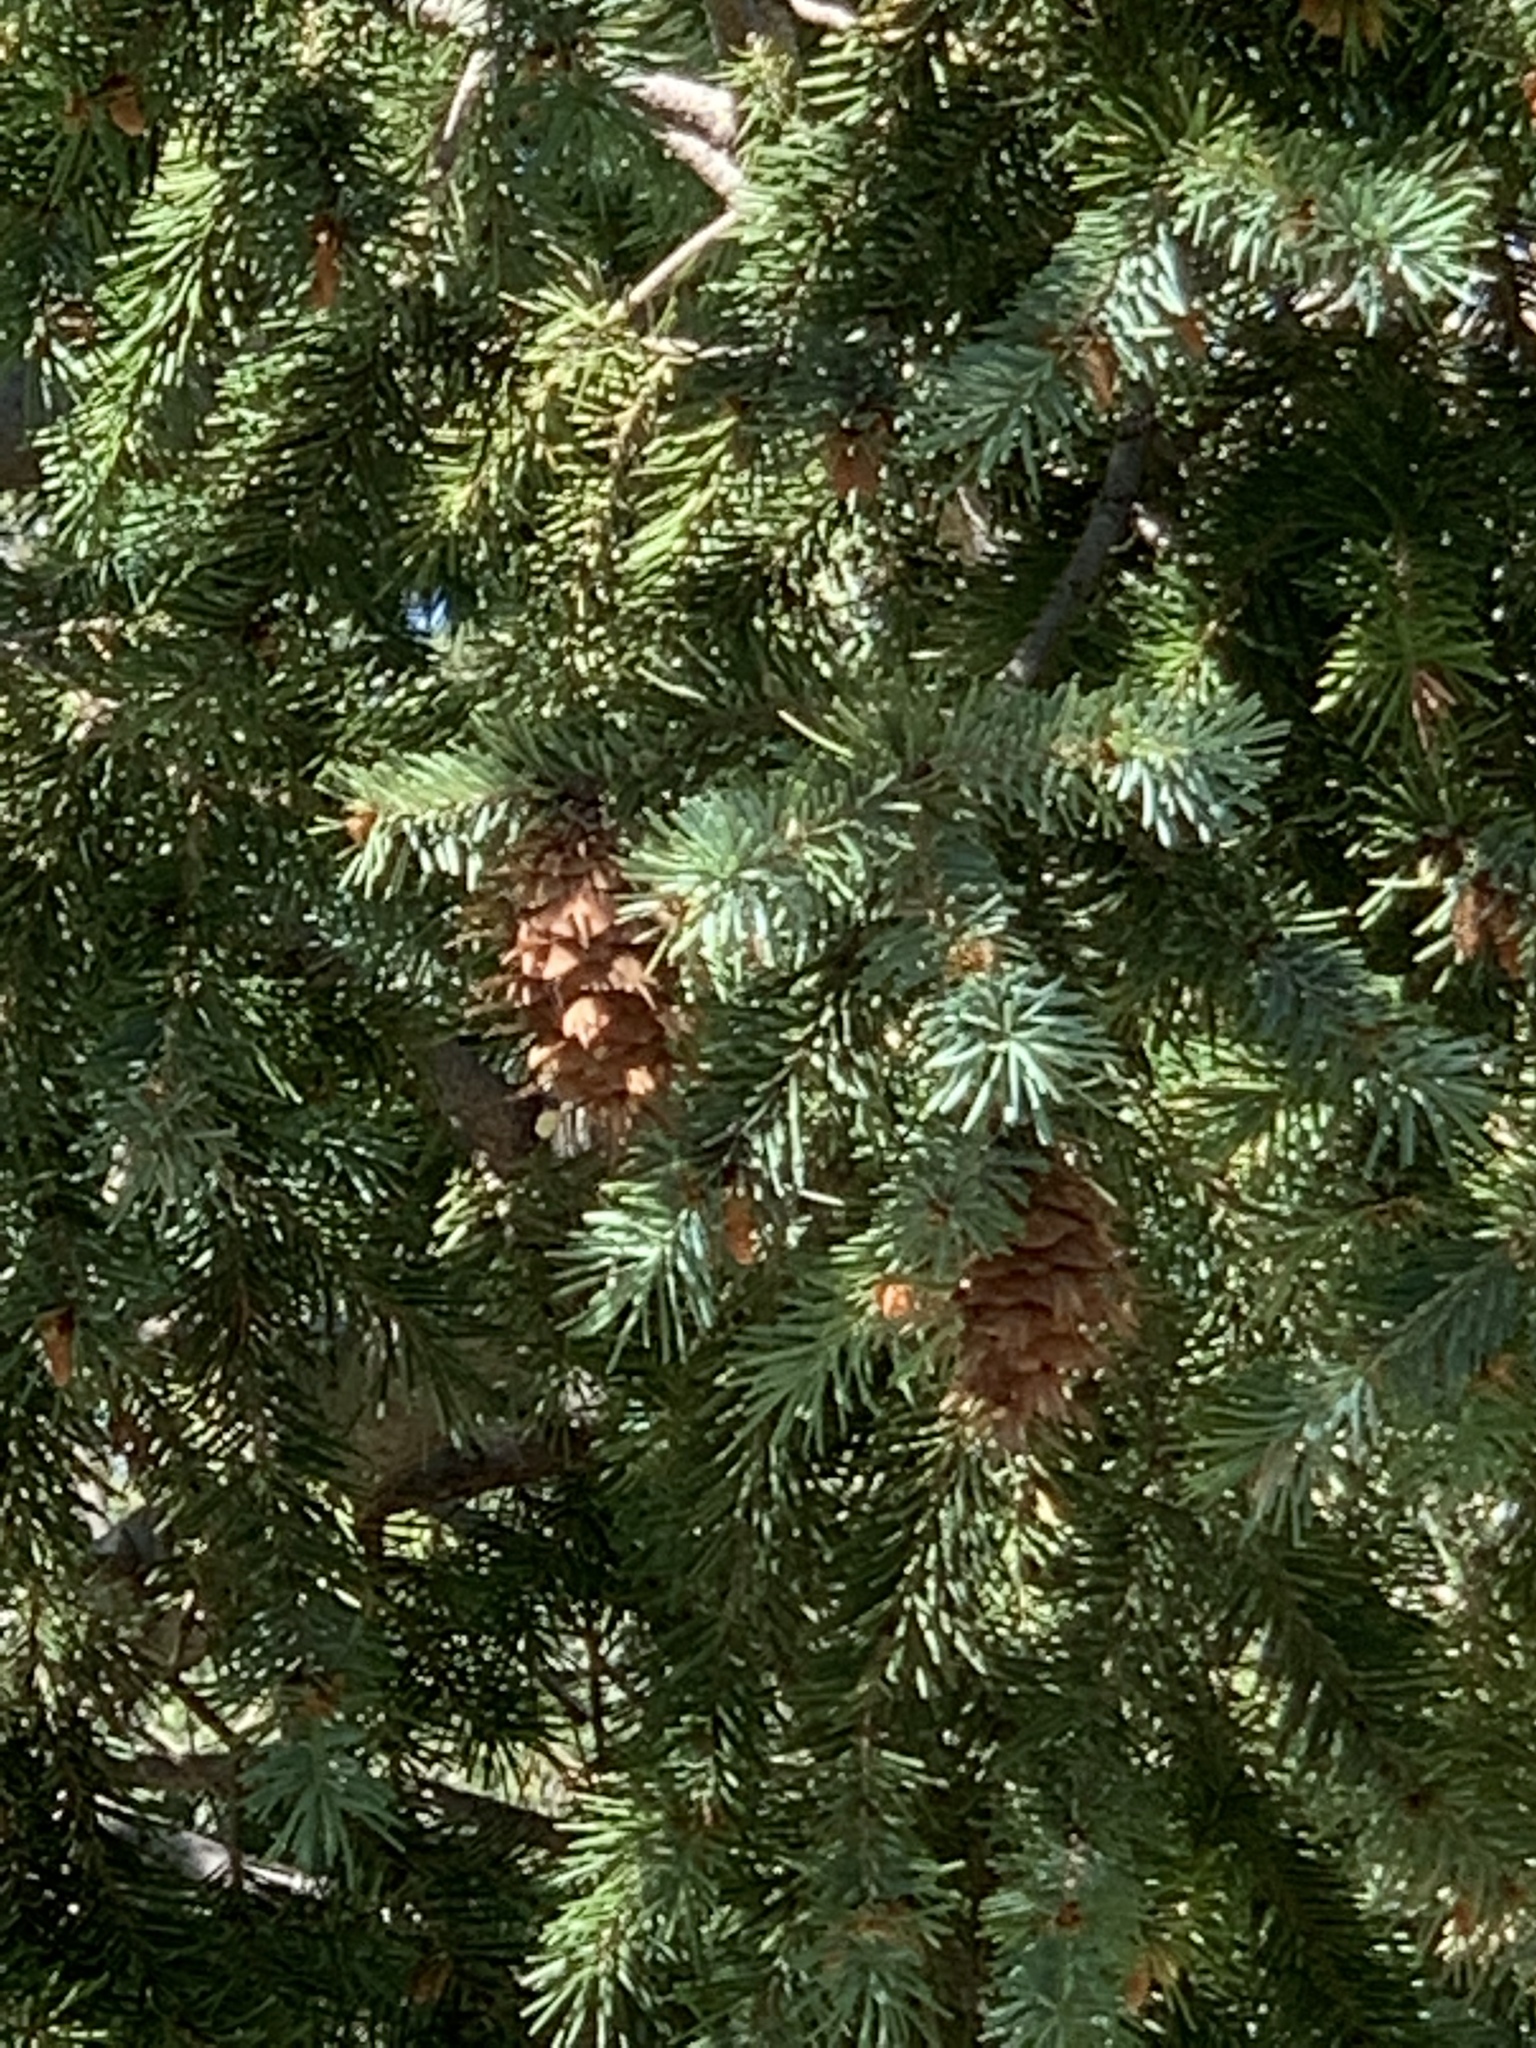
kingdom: Plantae
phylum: Tracheophyta
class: Pinopsida
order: Pinales
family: Pinaceae
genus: Pseudotsuga
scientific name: Pseudotsuga menziesii
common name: Douglas fir
